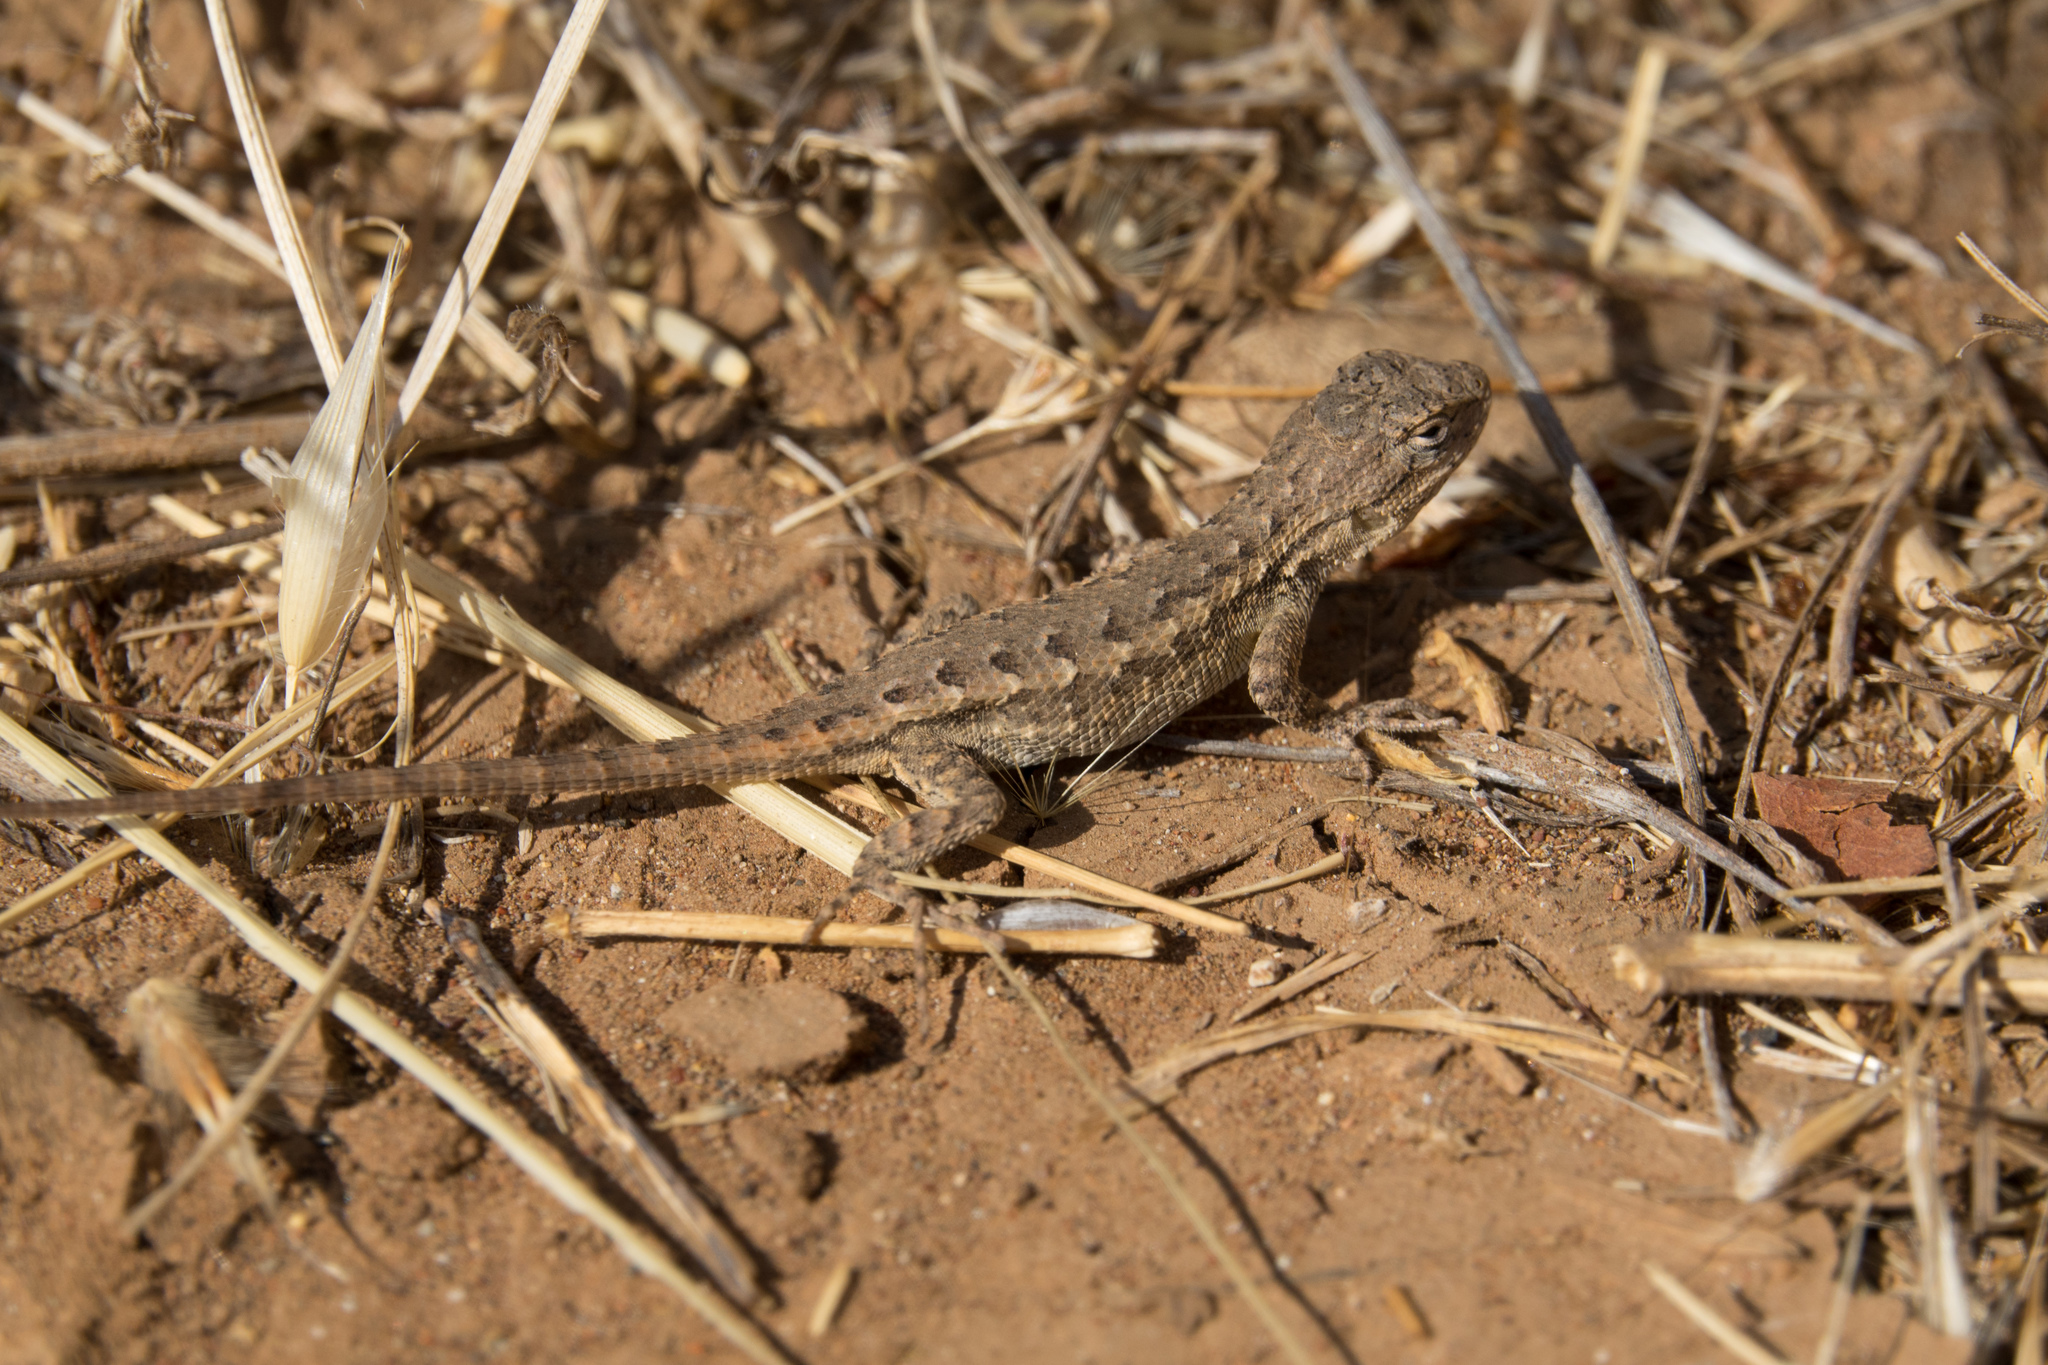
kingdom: Animalia
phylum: Chordata
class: Squamata
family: Phrynosomatidae
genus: Sceloporus
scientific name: Sceloporus occidentalis
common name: Western fence lizard
